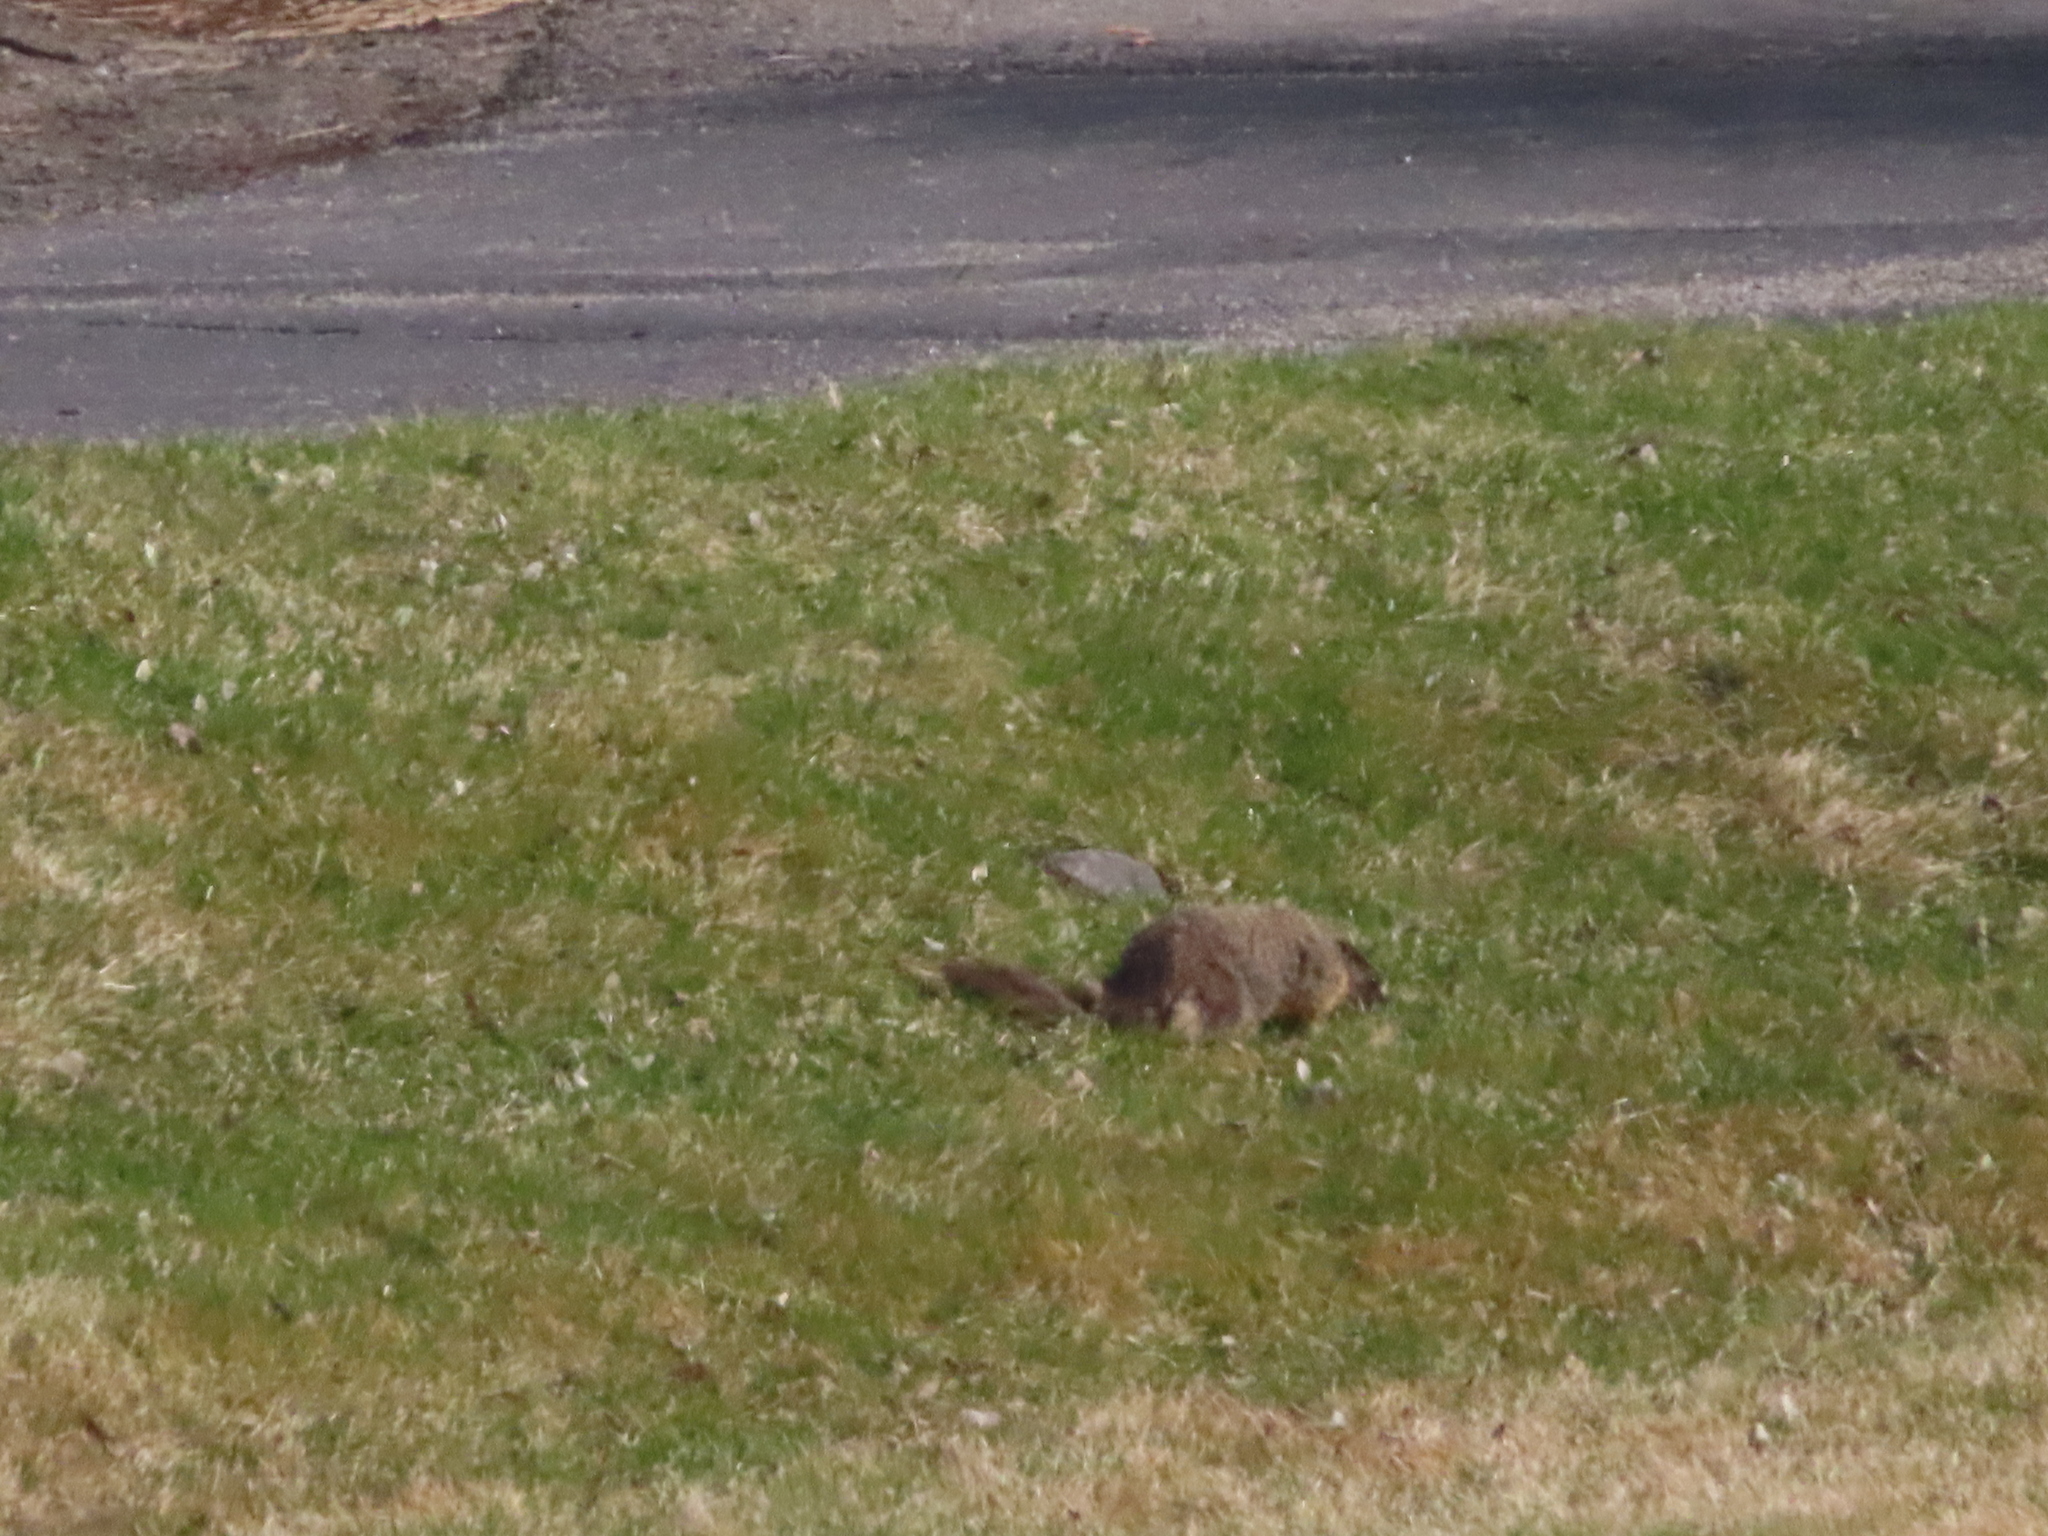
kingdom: Animalia
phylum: Chordata
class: Mammalia
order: Rodentia
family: Sciuridae
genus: Marmota
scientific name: Marmota flaviventris
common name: Yellow-bellied marmot
